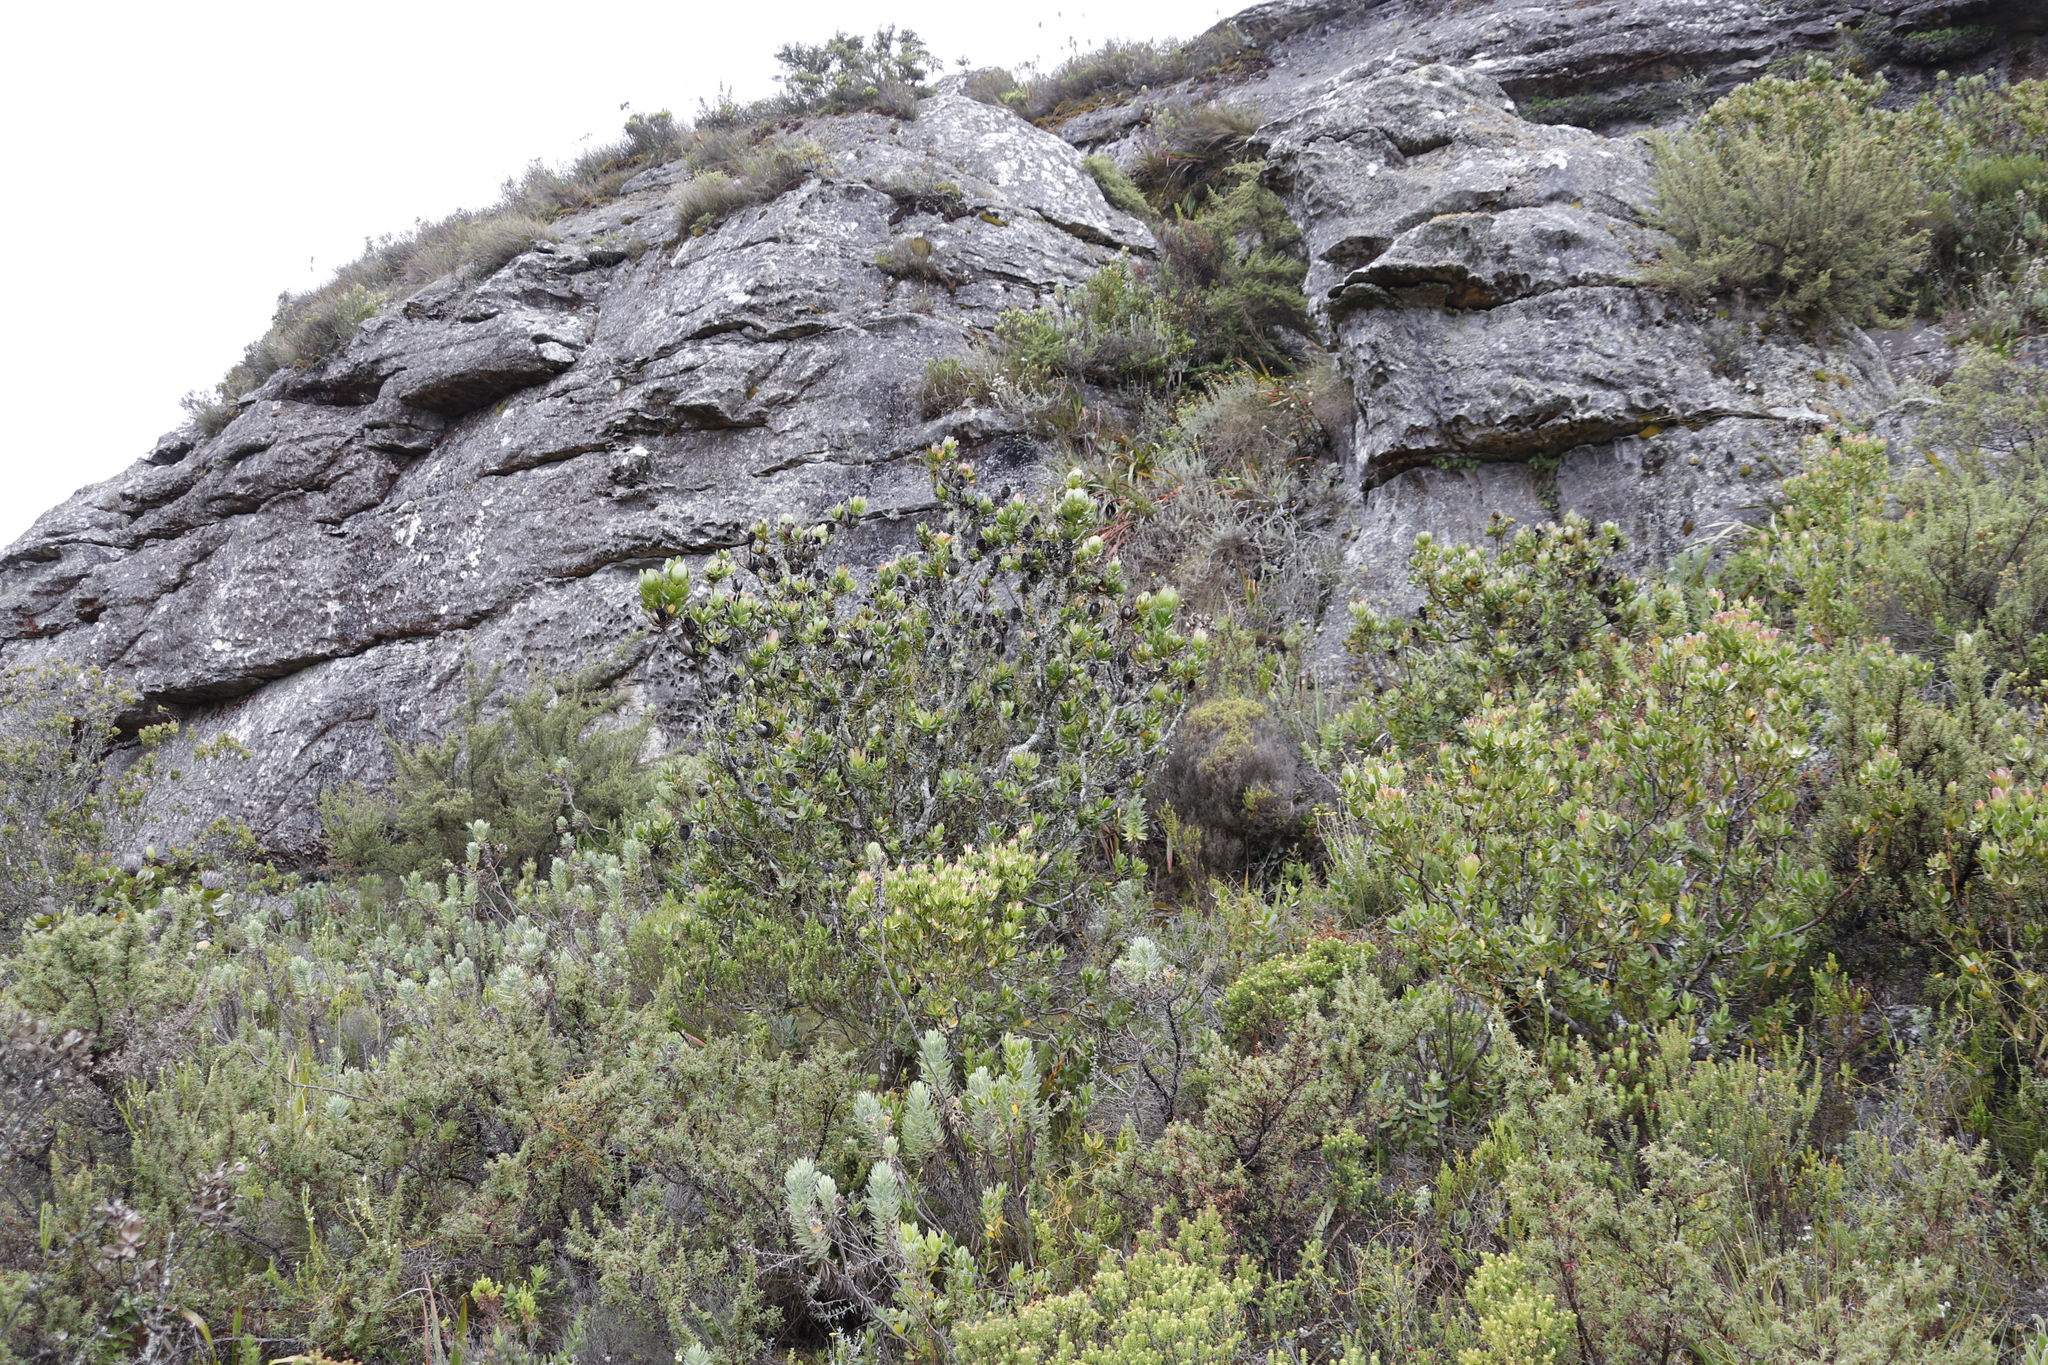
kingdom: Plantae
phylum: Tracheophyta
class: Magnoliopsida
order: Proteales
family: Proteaceae
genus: Leucadendron
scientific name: Leucadendron strobilinum
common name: Mountain rose
